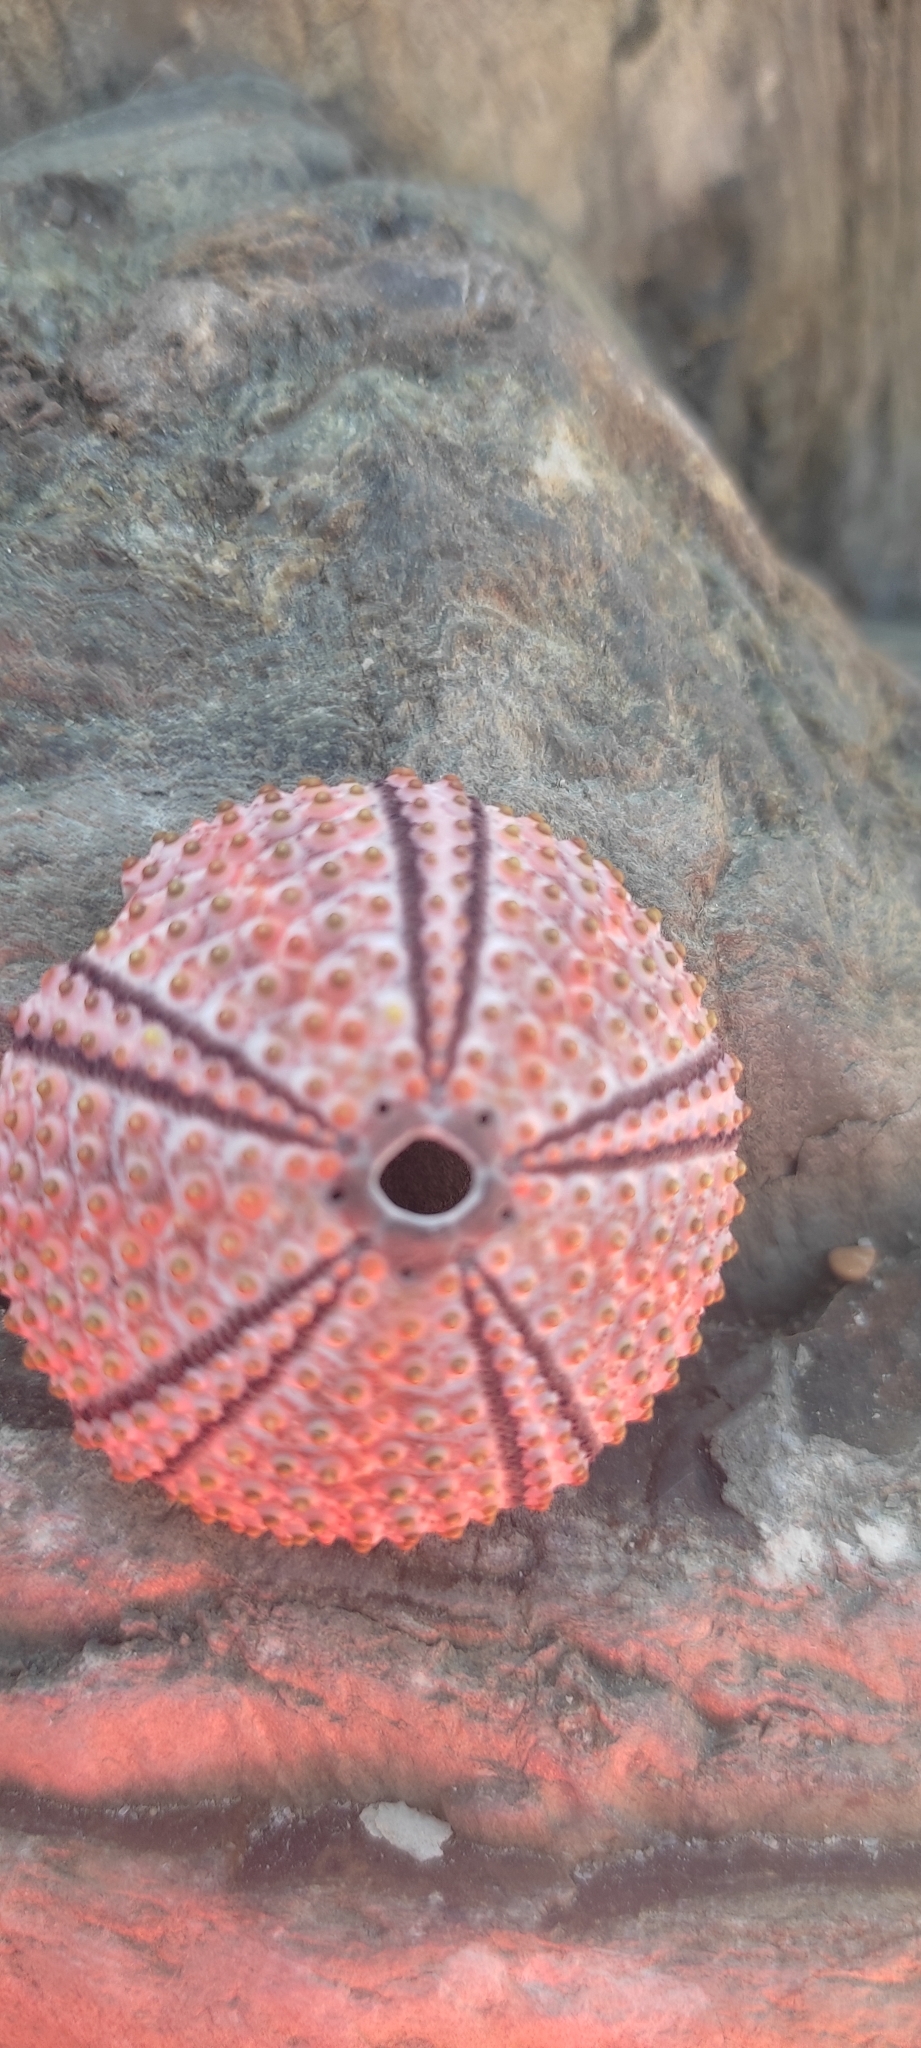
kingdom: Animalia
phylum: Echinodermata
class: Echinoidea
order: Arbacioida
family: Arbaciidae
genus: Arbacia
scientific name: Arbacia lixula
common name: Black sea urchin
